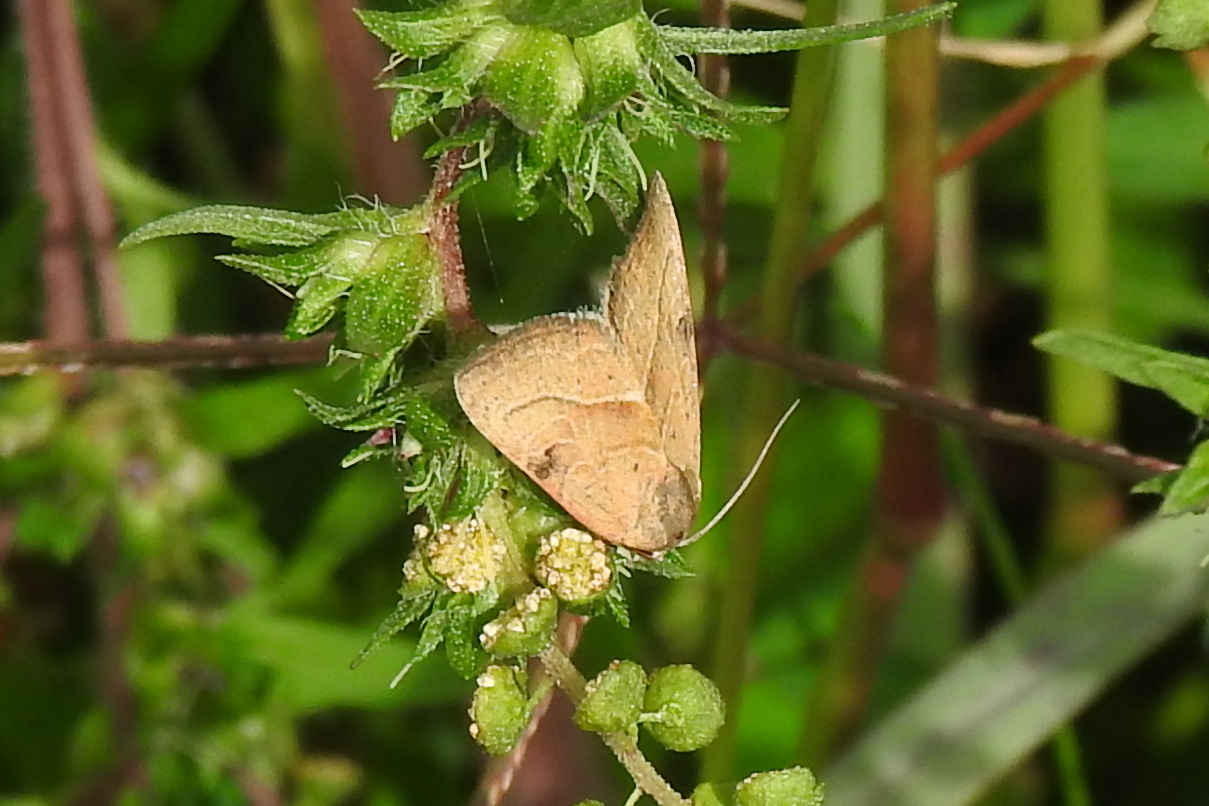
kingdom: Animalia
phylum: Arthropoda
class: Insecta
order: Lepidoptera
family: Noctuidae
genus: Galgula
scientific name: Galgula partita
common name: Wedgeling
